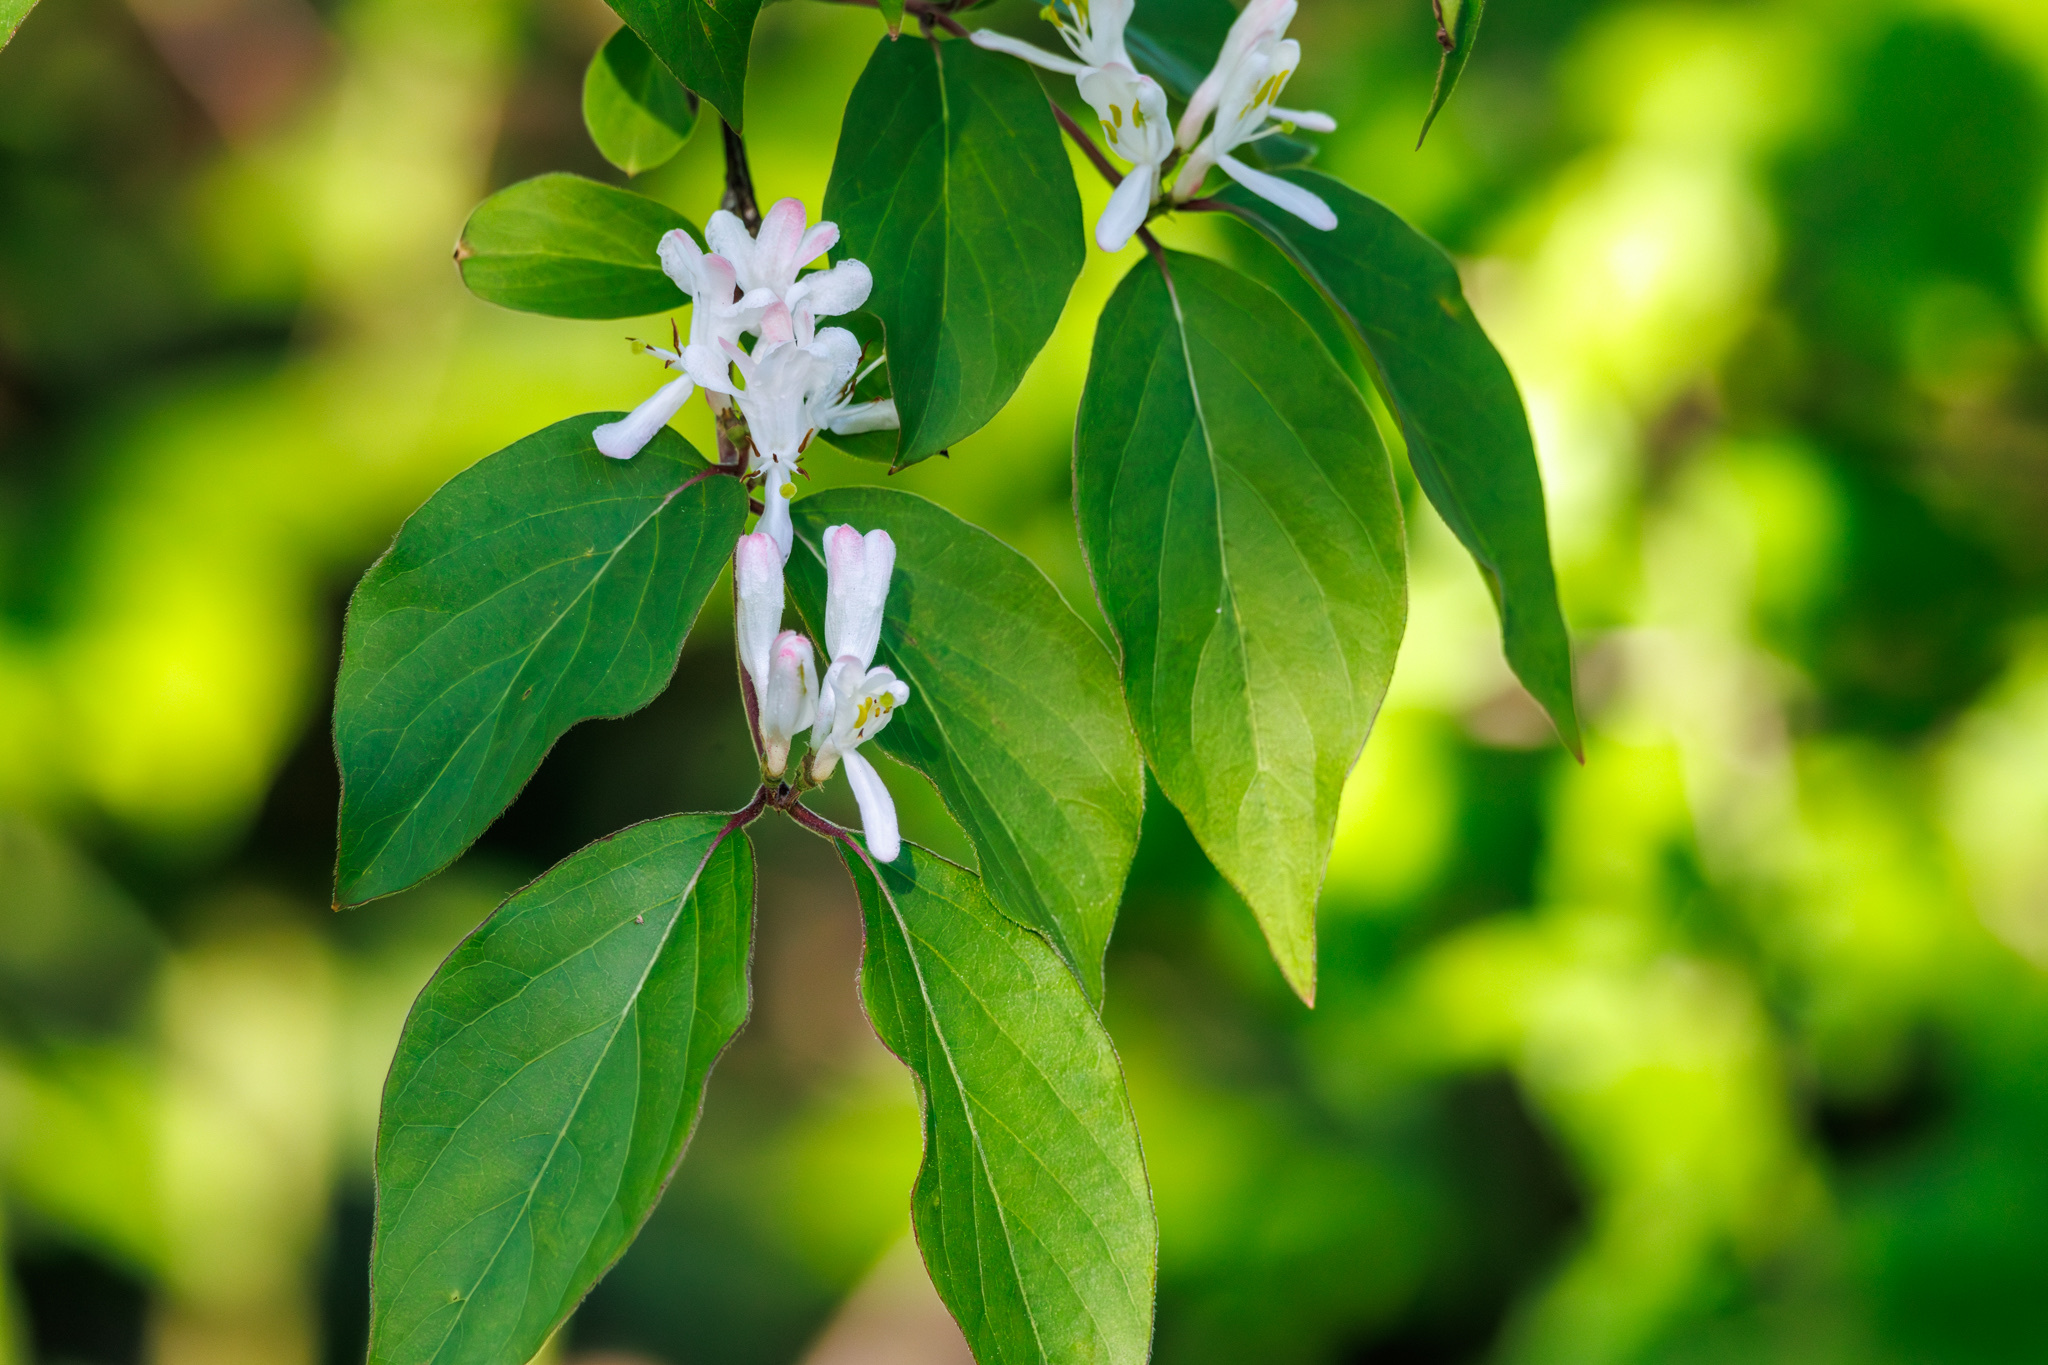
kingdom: Plantae
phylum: Tracheophyta
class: Magnoliopsida
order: Dipsacales
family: Caprifoliaceae
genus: Lonicera
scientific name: Lonicera maackii
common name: Amur honeysuckle
